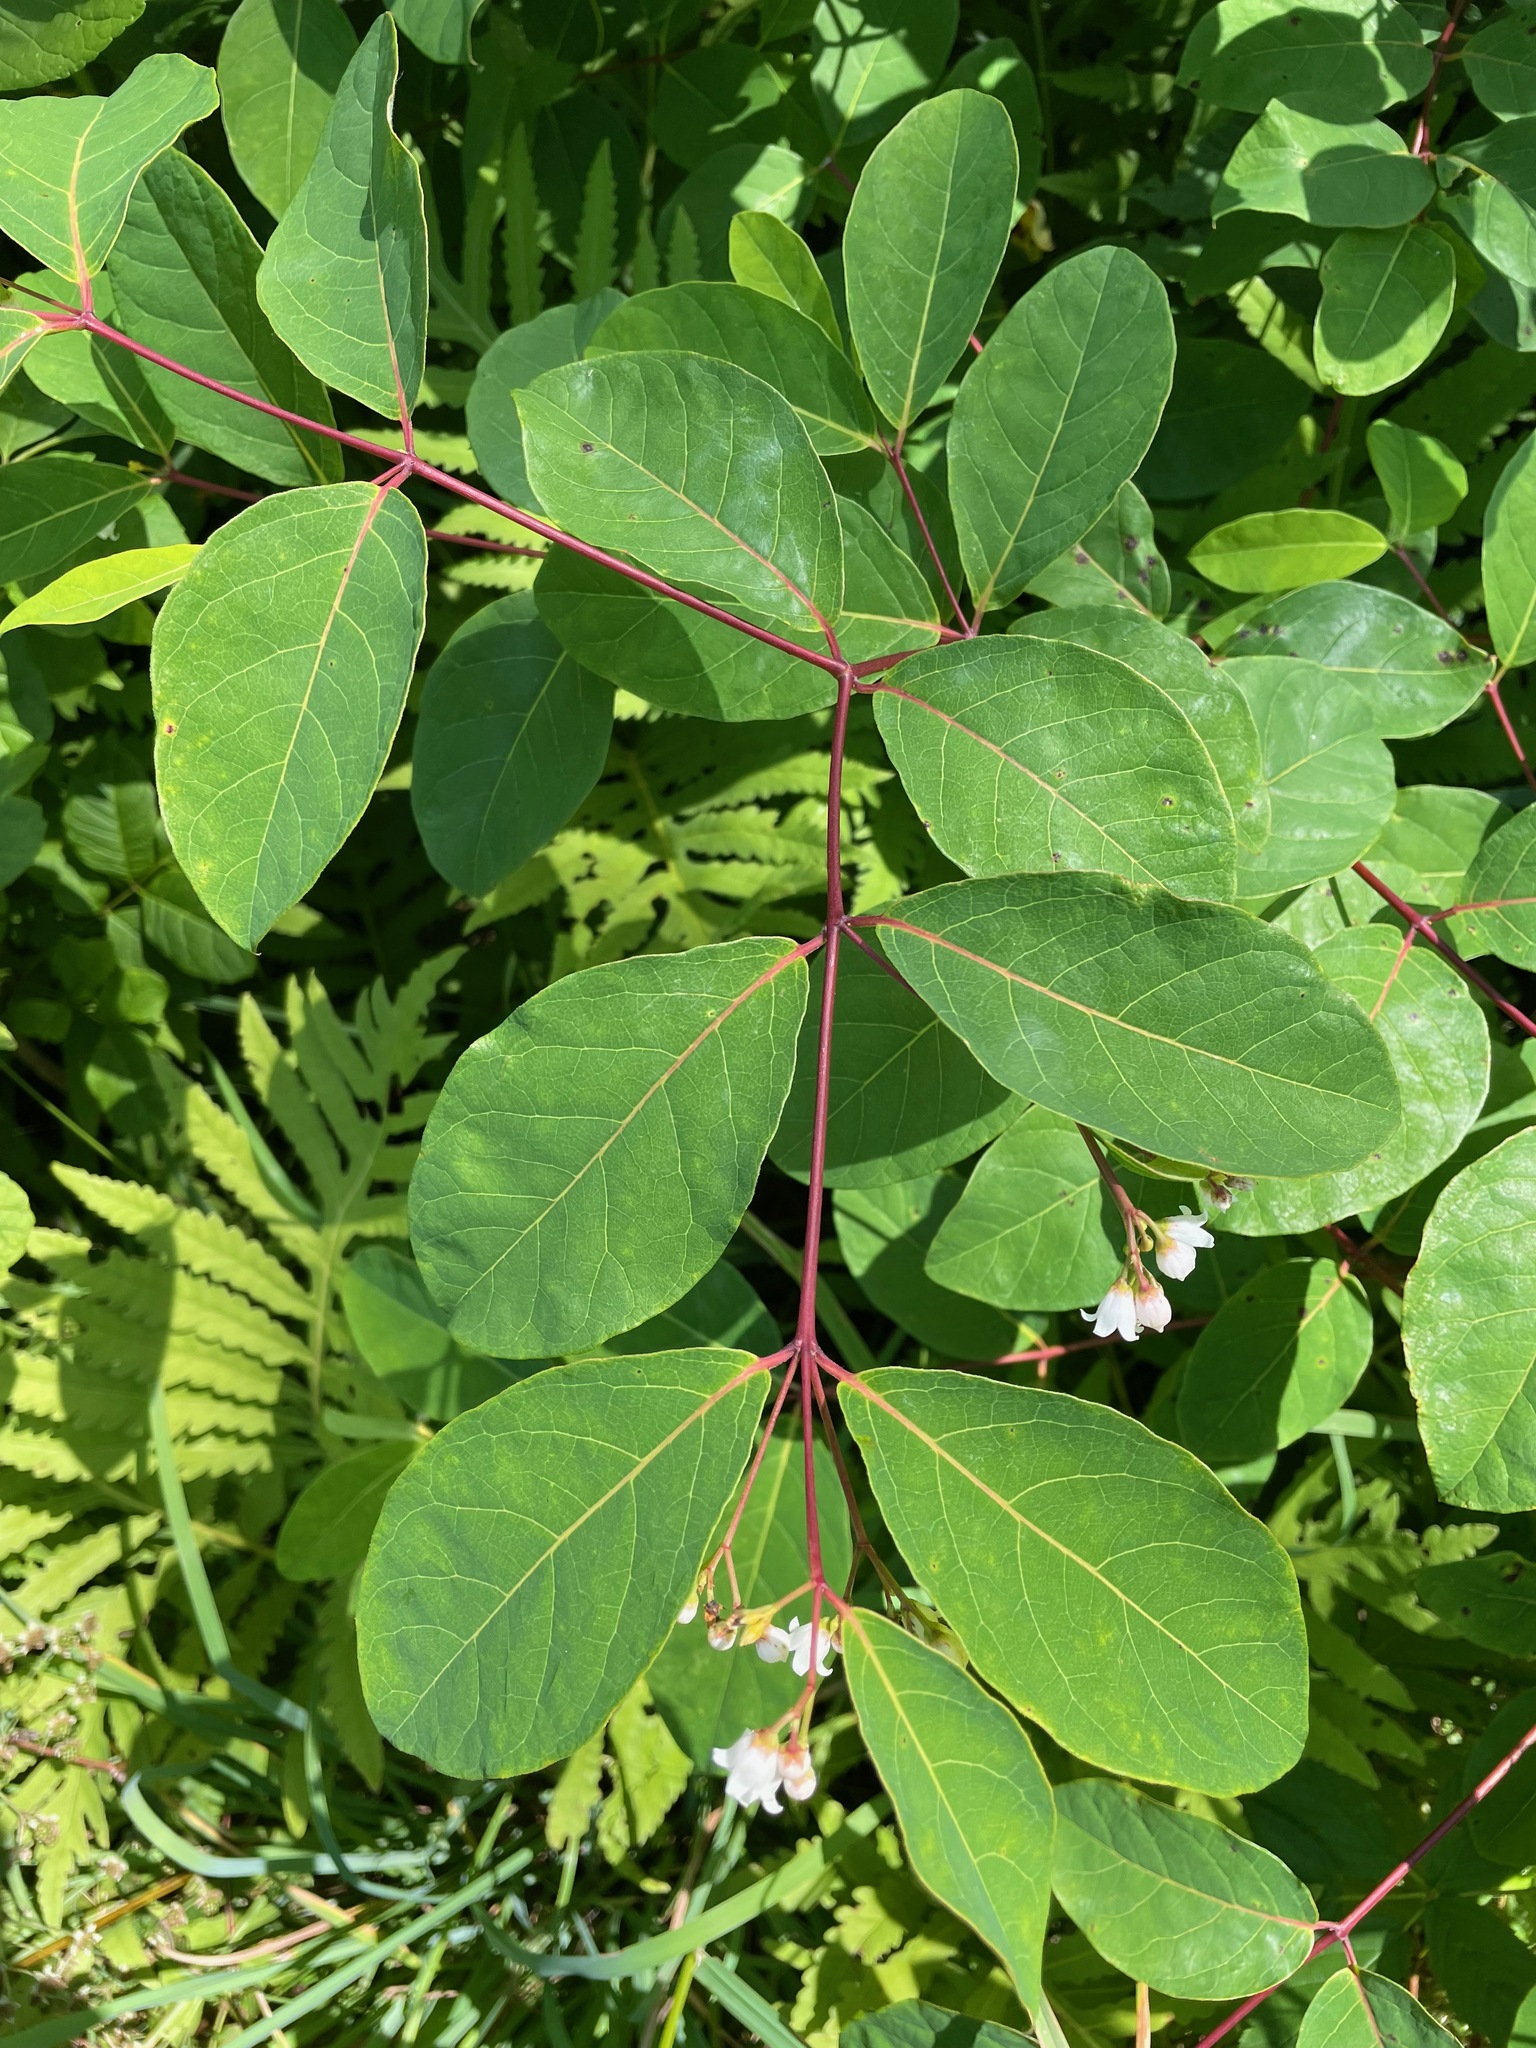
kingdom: Plantae
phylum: Tracheophyta
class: Magnoliopsida
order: Gentianales
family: Apocynaceae
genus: Apocynum
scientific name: Apocynum androsaemifolium
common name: Spreading dogbane
